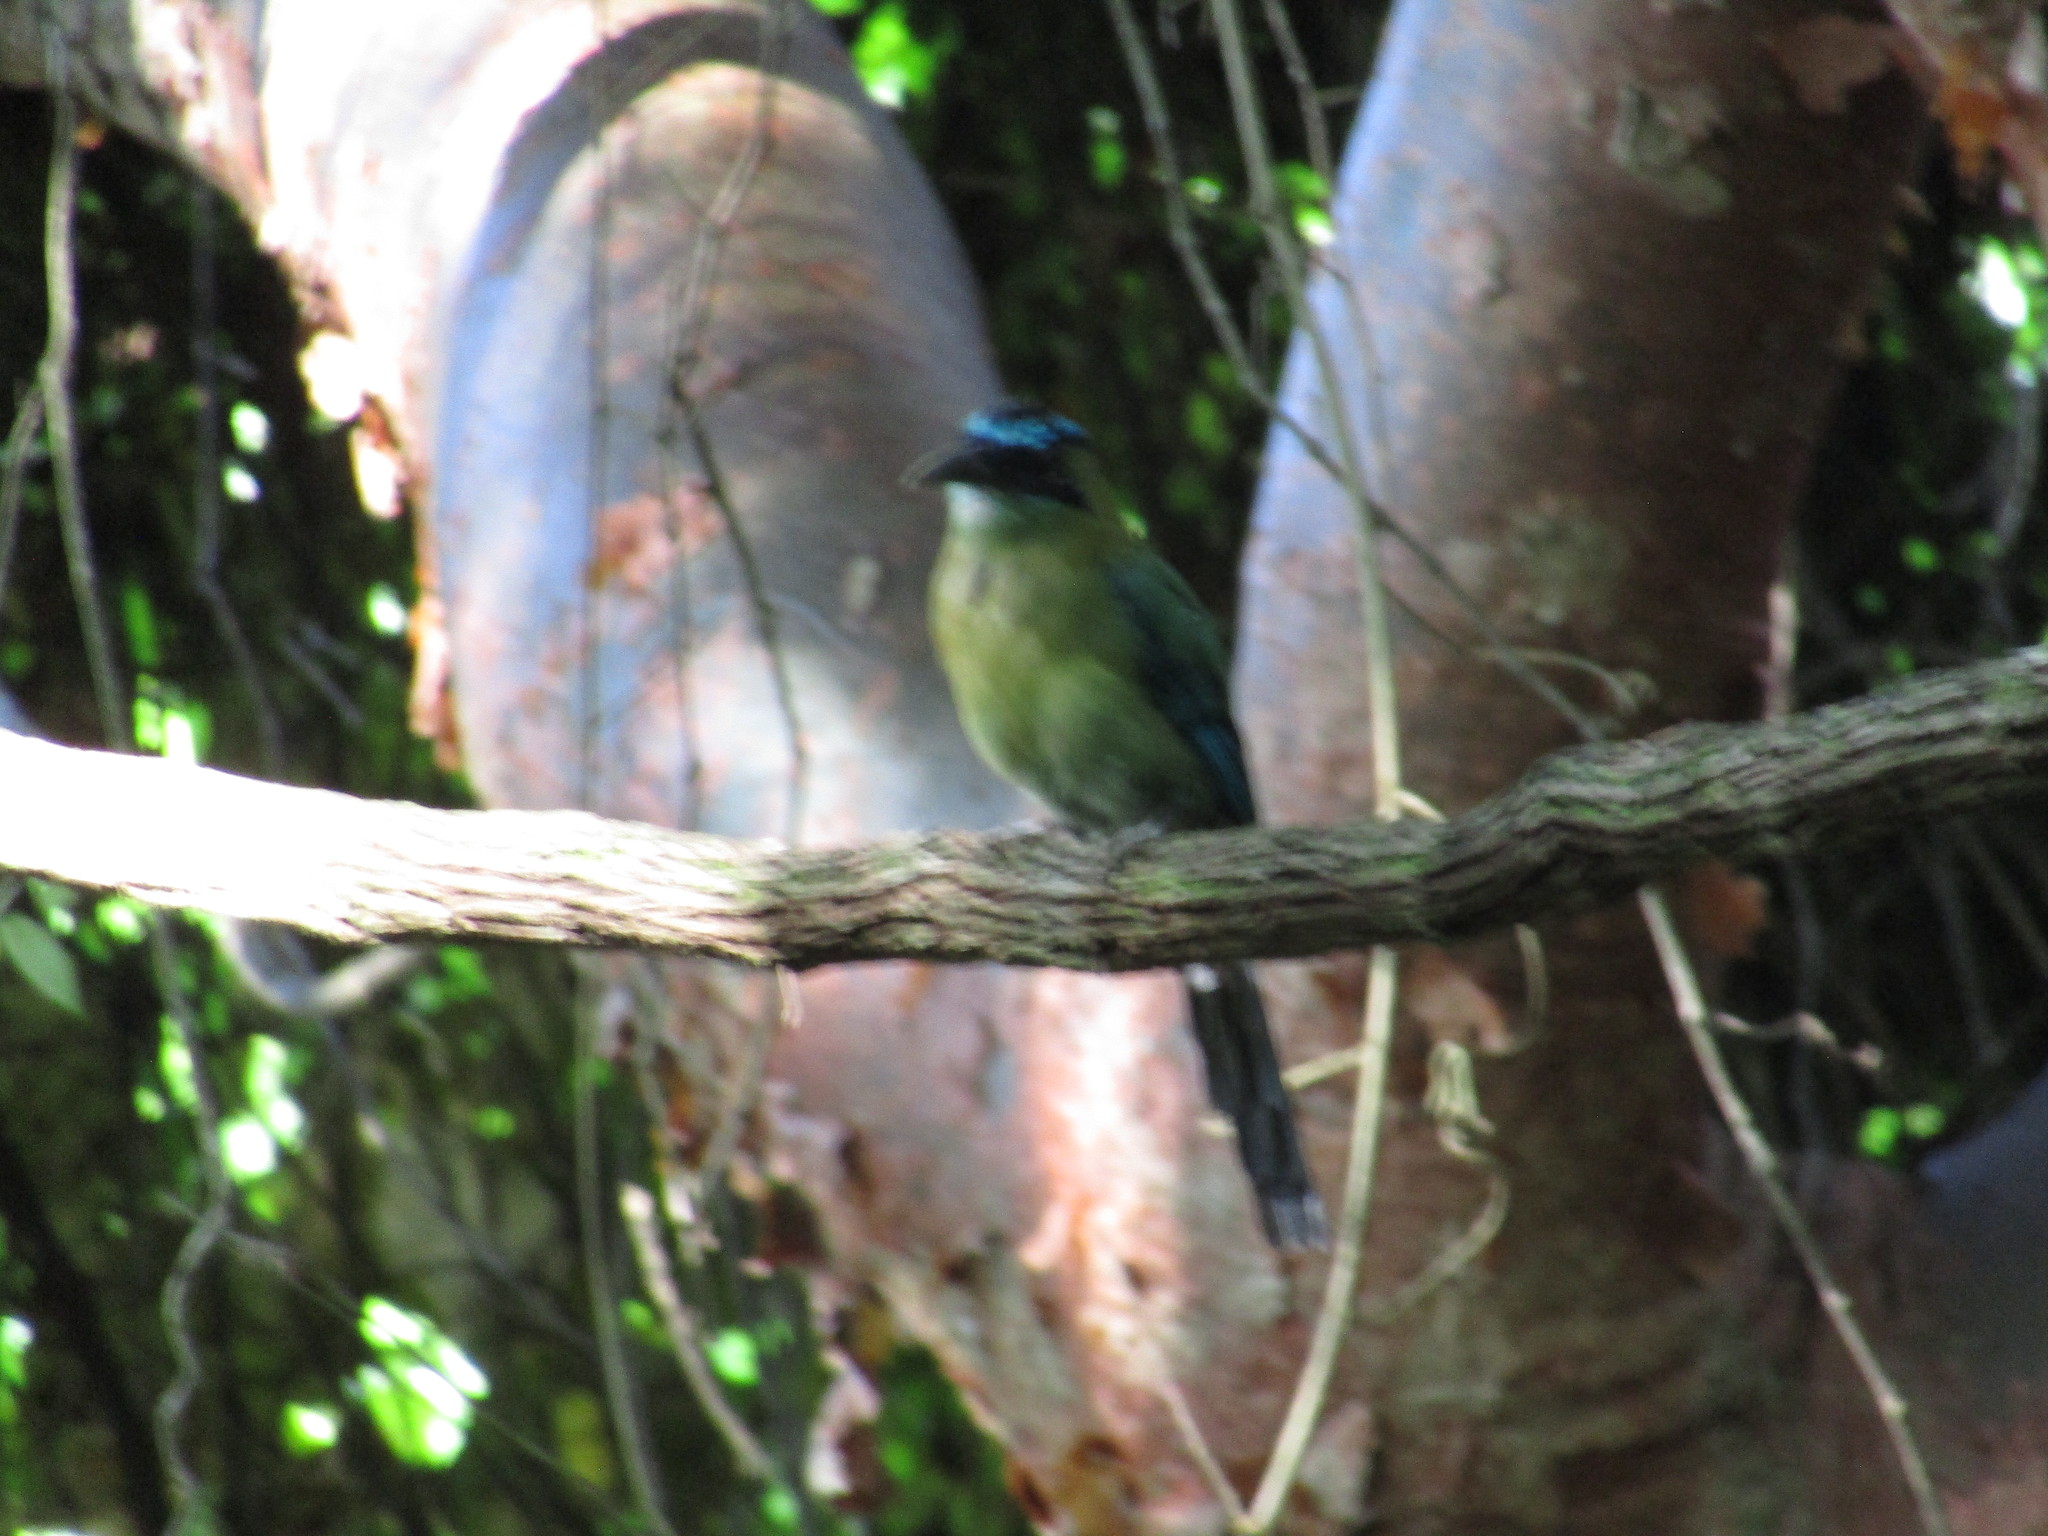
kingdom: Animalia
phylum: Chordata
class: Aves
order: Coraciiformes
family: Momotidae
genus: Momotus
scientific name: Momotus lessonii
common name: Lesson's motmot
